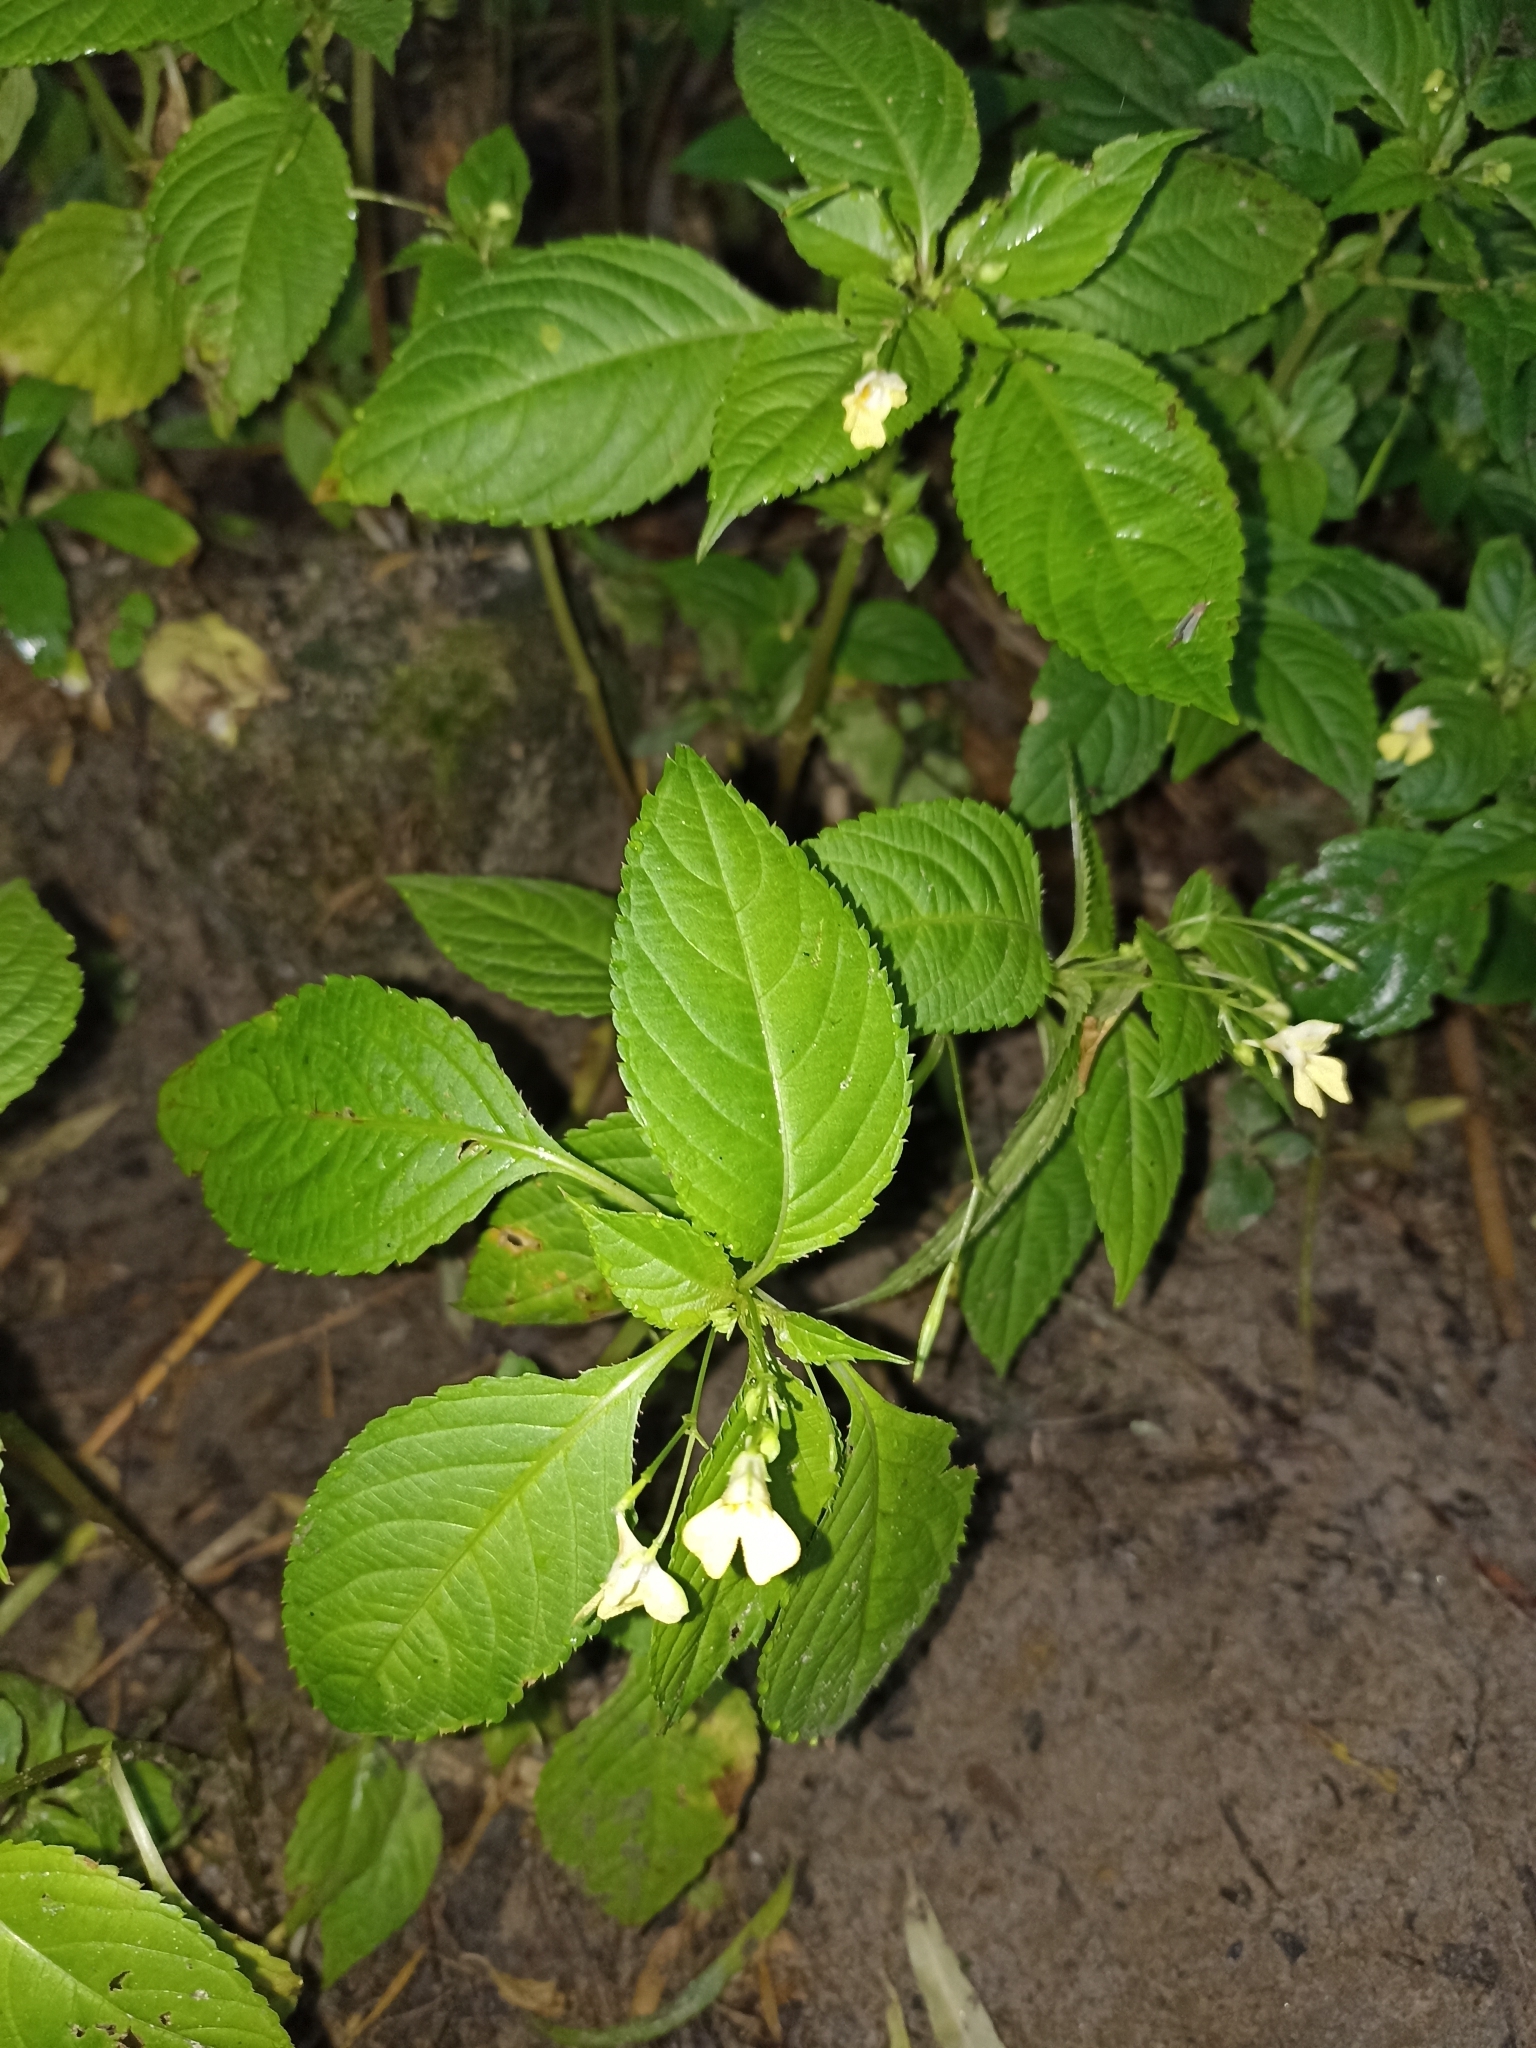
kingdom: Plantae
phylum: Tracheophyta
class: Magnoliopsida
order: Ericales
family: Balsaminaceae
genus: Impatiens
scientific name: Impatiens parviflora
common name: Small balsam
